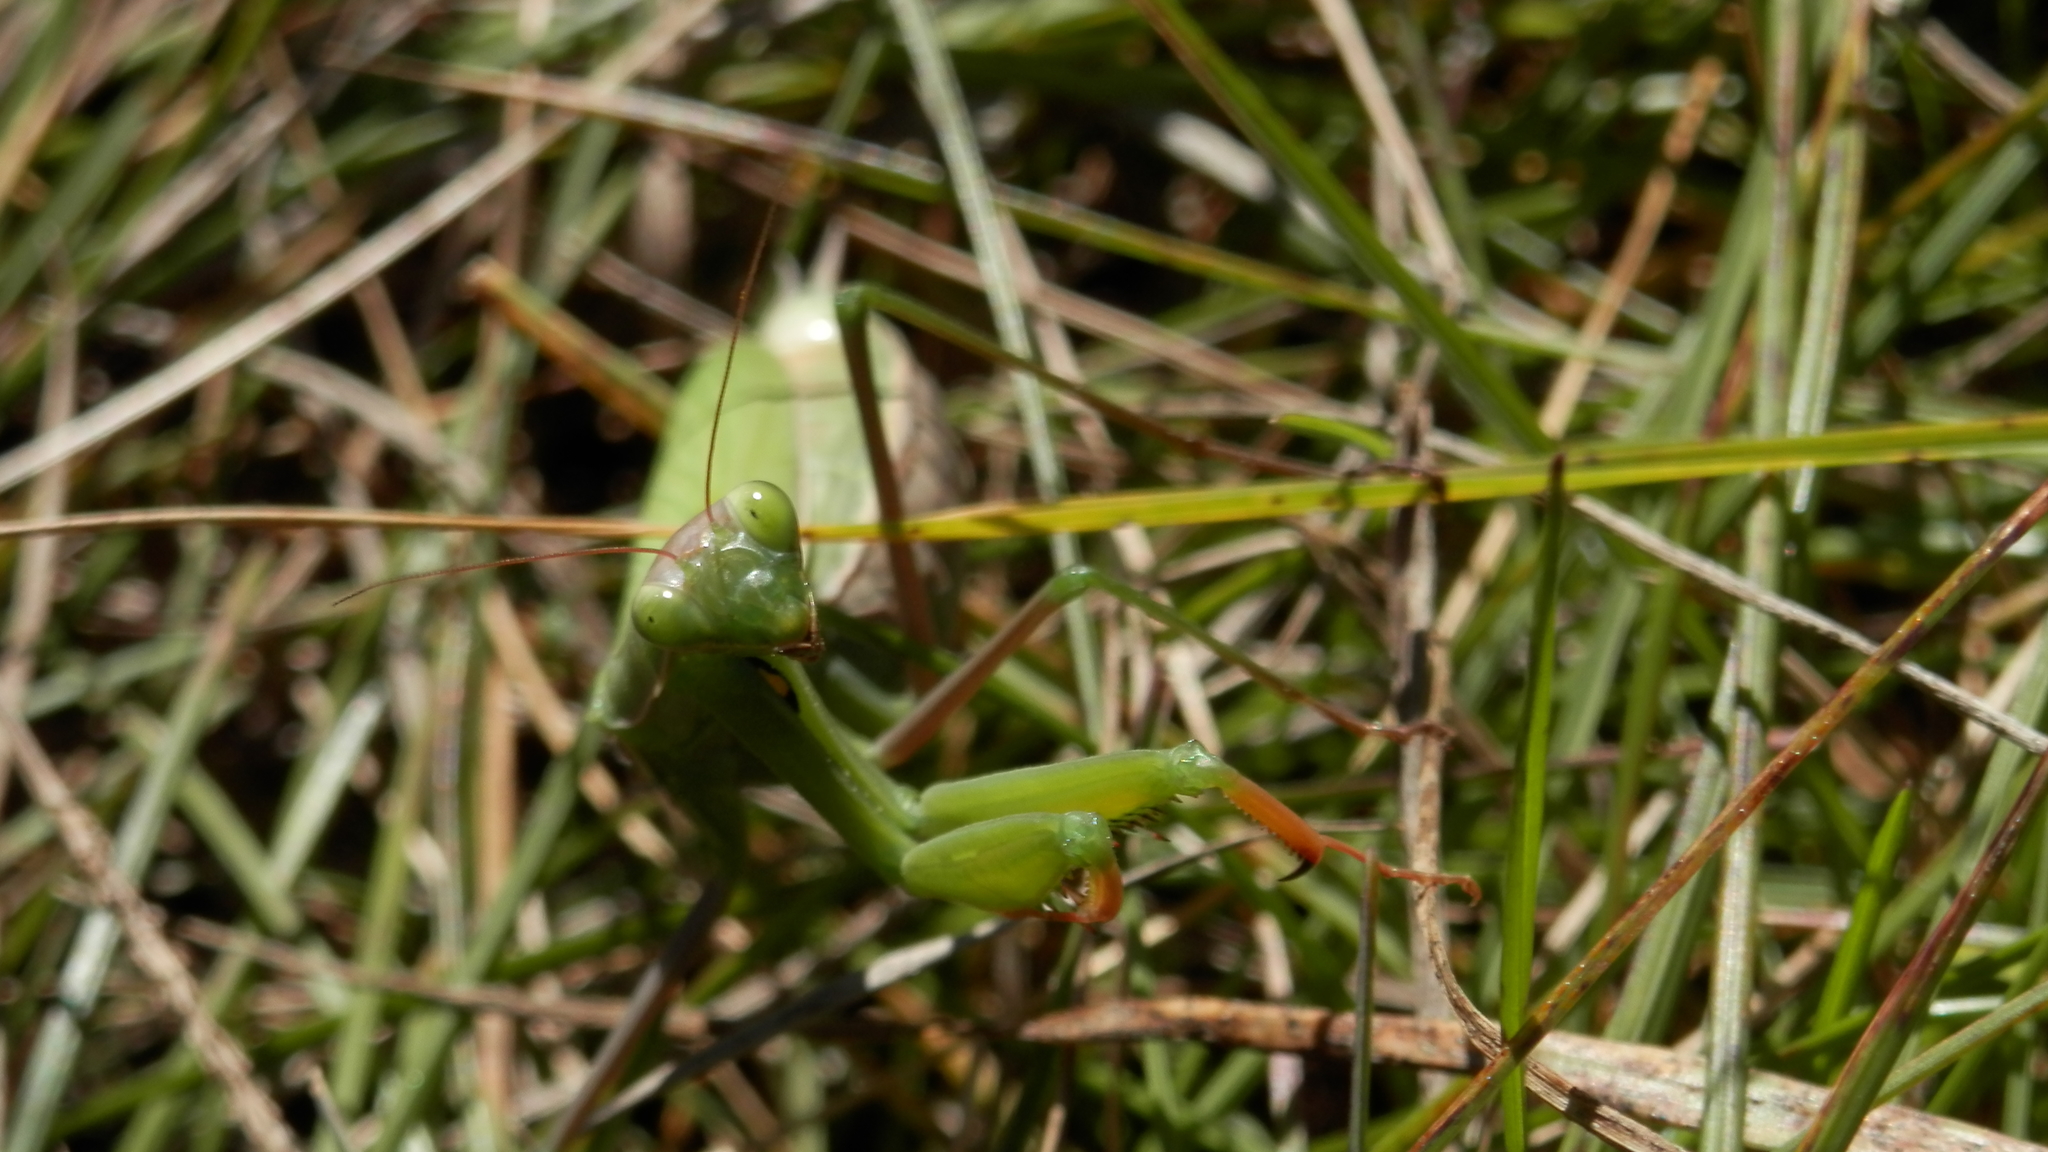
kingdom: Animalia
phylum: Arthropoda
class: Insecta
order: Mantodea
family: Mantidae
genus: Mantis
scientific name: Mantis religiosa
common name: Praying mantis
